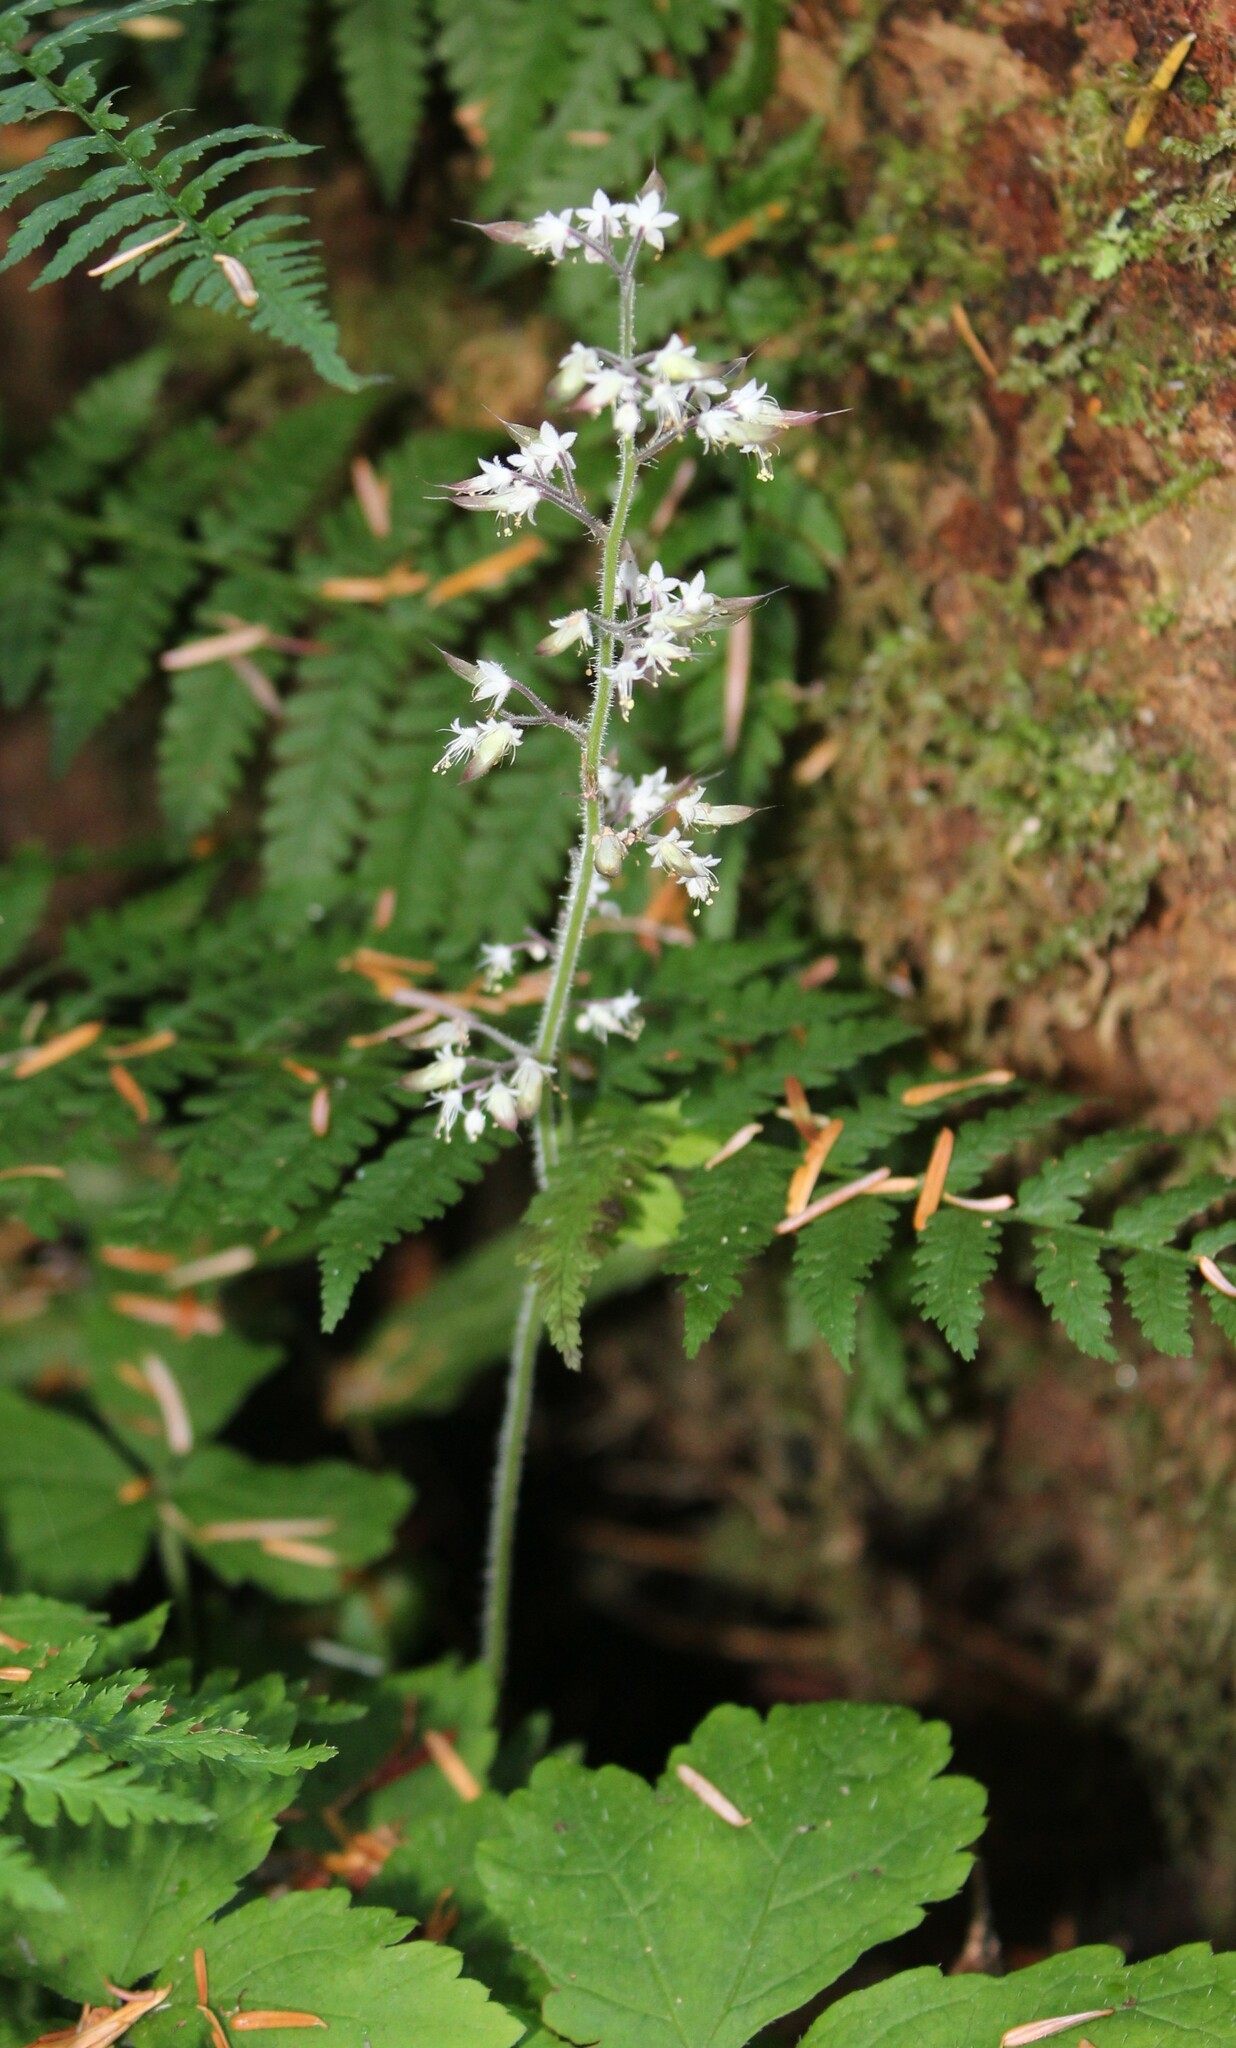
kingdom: Plantae
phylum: Tracheophyta
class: Magnoliopsida
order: Saxifragales
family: Saxifragaceae
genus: Tiarella
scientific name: Tiarella trifoliata
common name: Sugar-scoop
